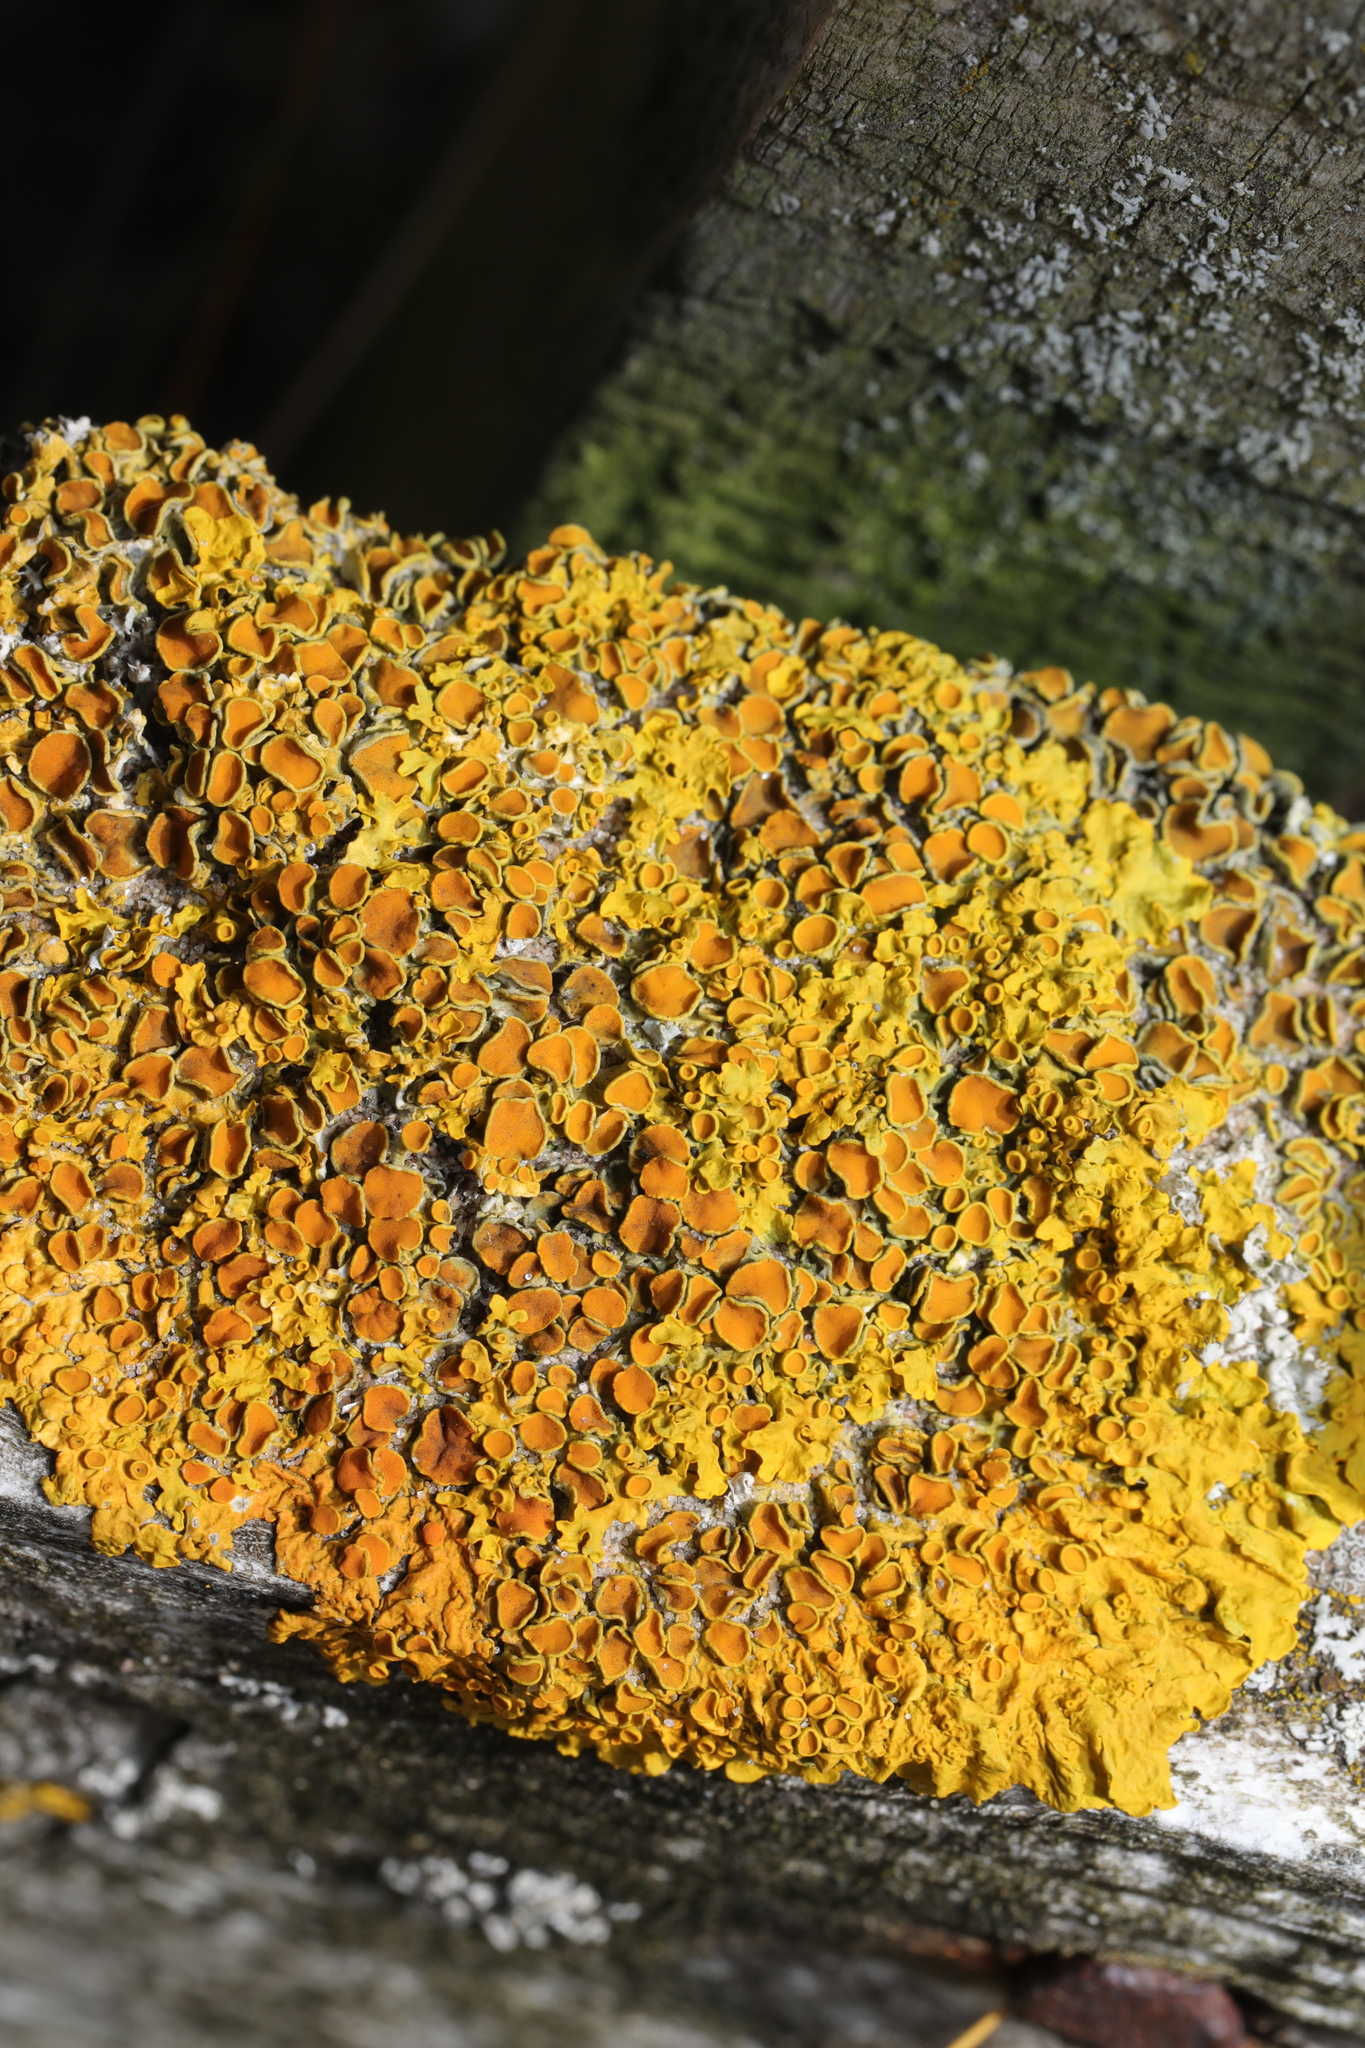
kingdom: Fungi
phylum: Ascomycota
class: Lecanoromycetes
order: Teloschistales
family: Teloschistaceae
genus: Xanthoria
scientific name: Xanthoria parietina
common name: Common orange lichen
